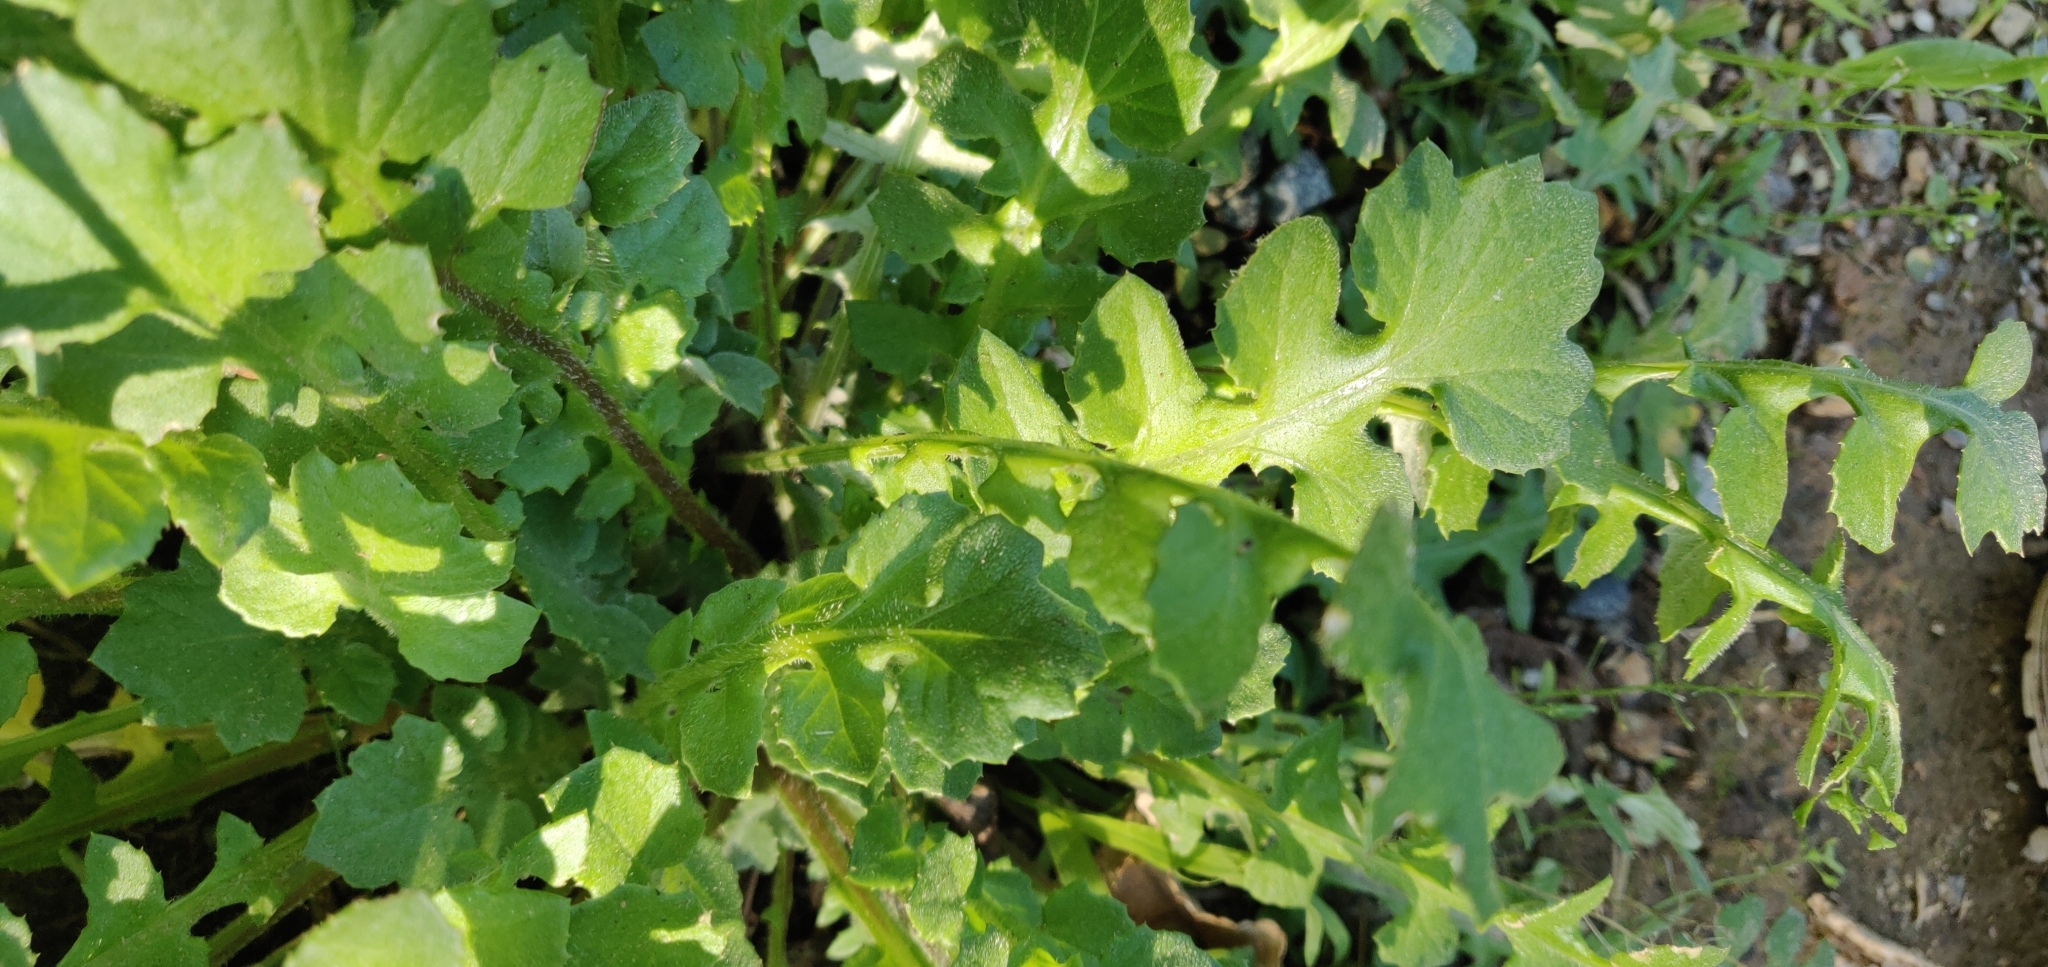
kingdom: Plantae
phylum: Tracheophyta
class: Magnoliopsida
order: Asterales
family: Asteraceae
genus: Arctotheca
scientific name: Arctotheca calendula
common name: Capeweed
